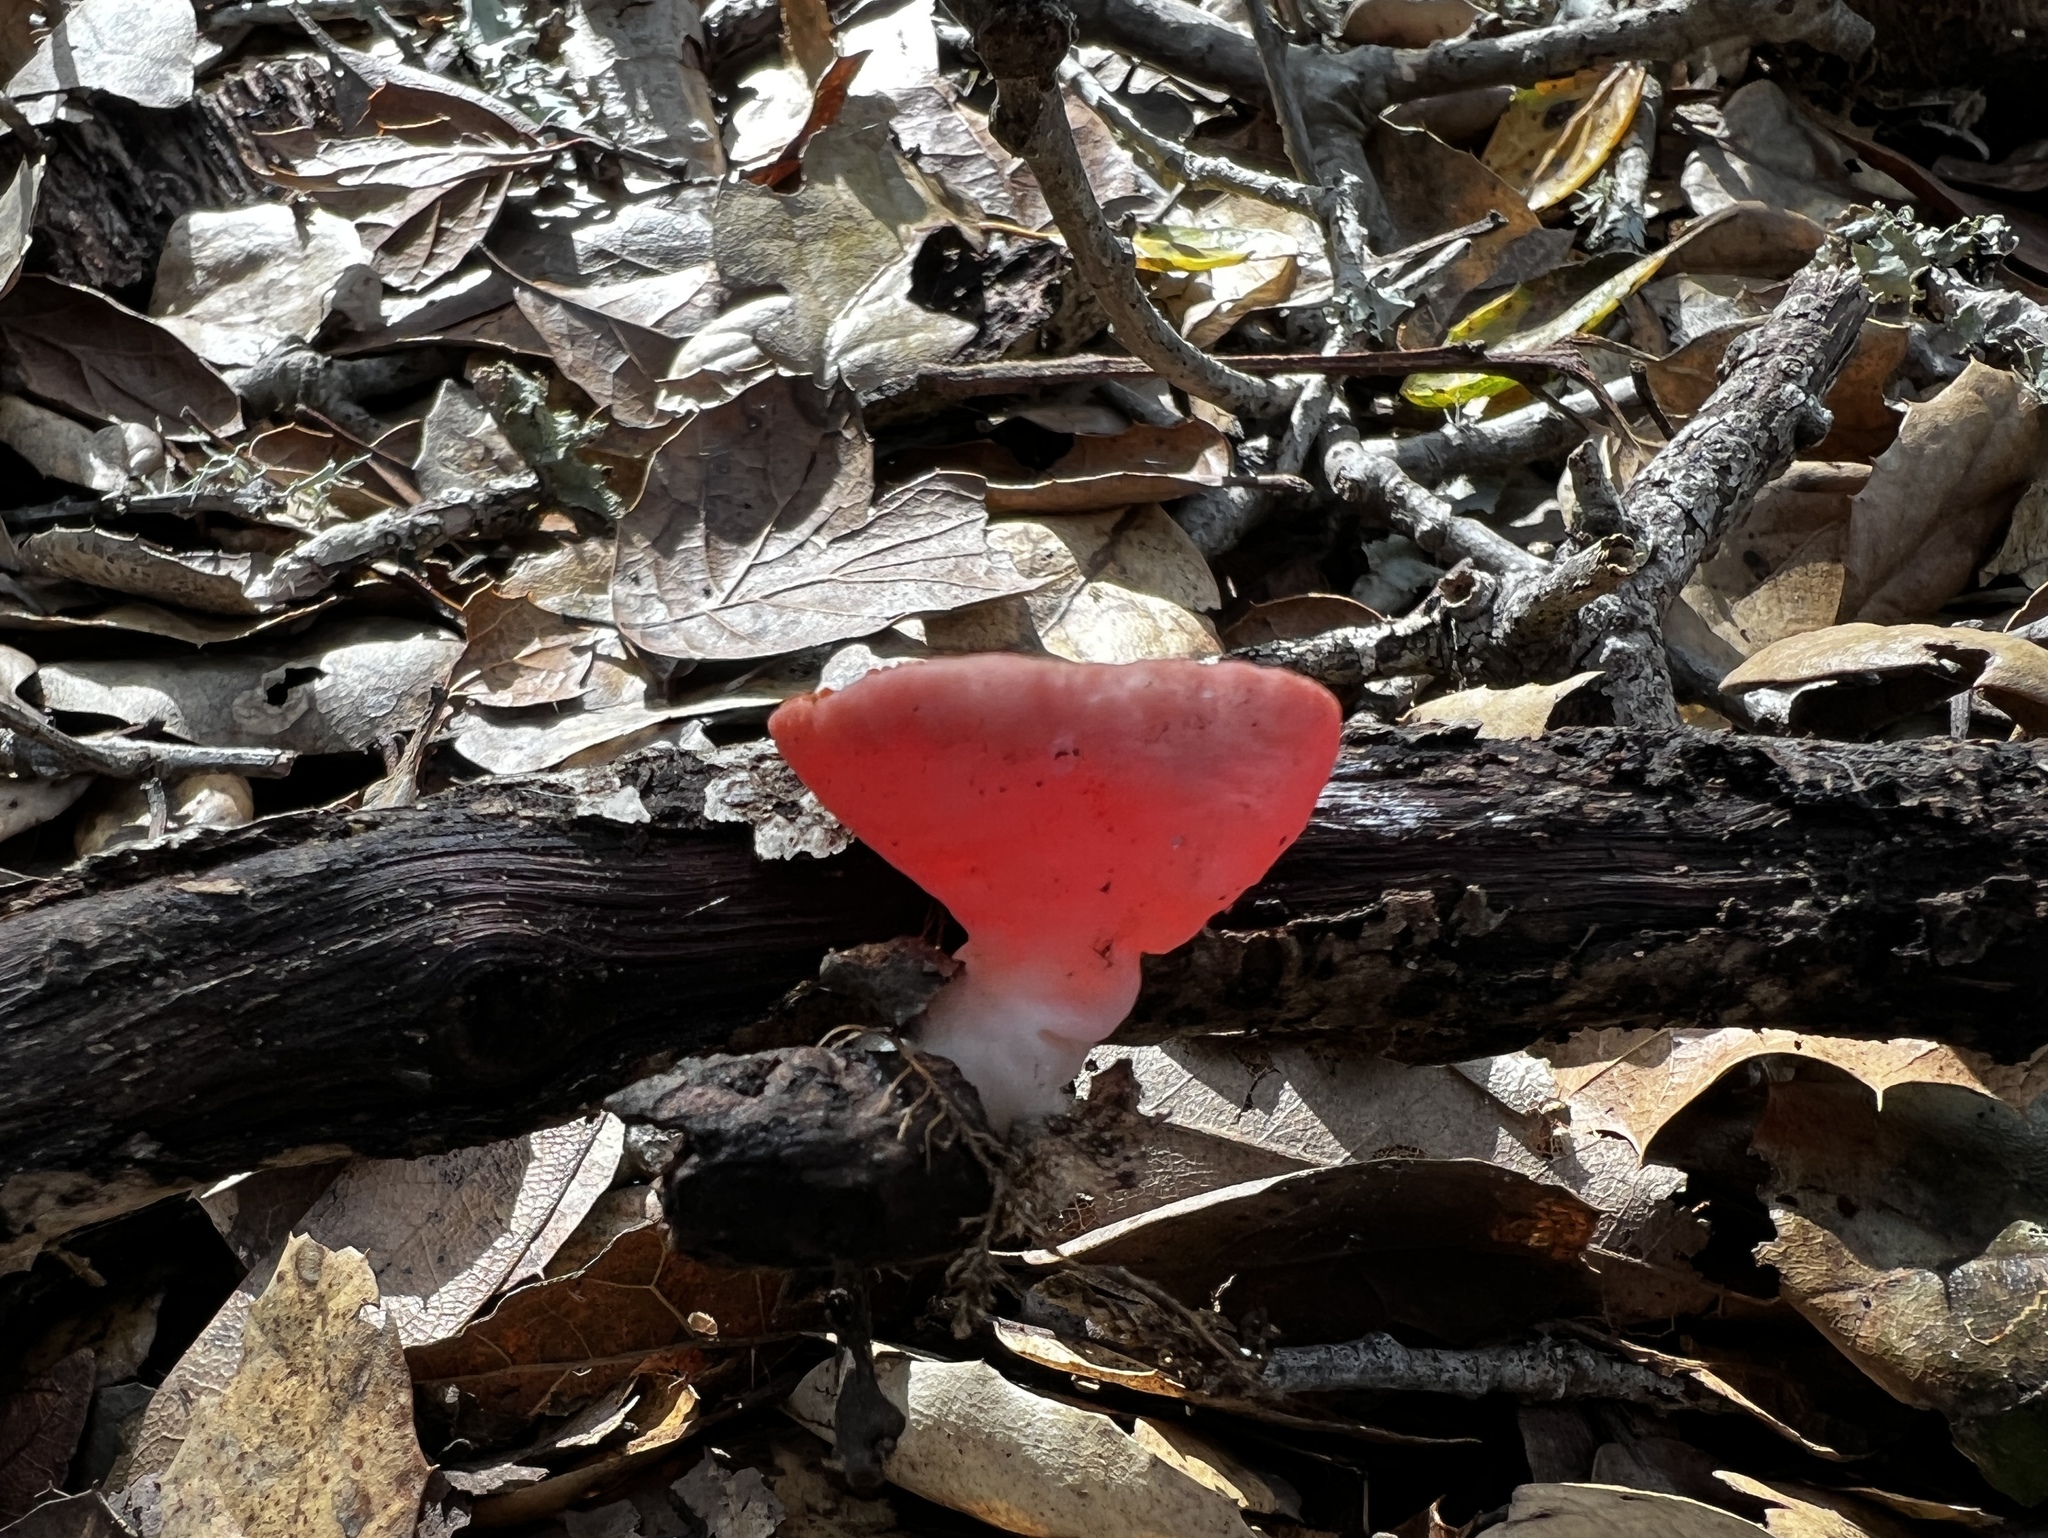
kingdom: Fungi
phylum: Ascomycota
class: Pezizomycetes
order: Pezizales
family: Sarcoscyphaceae
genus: Sarcoscypha
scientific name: Sarcoscypha coccinea
